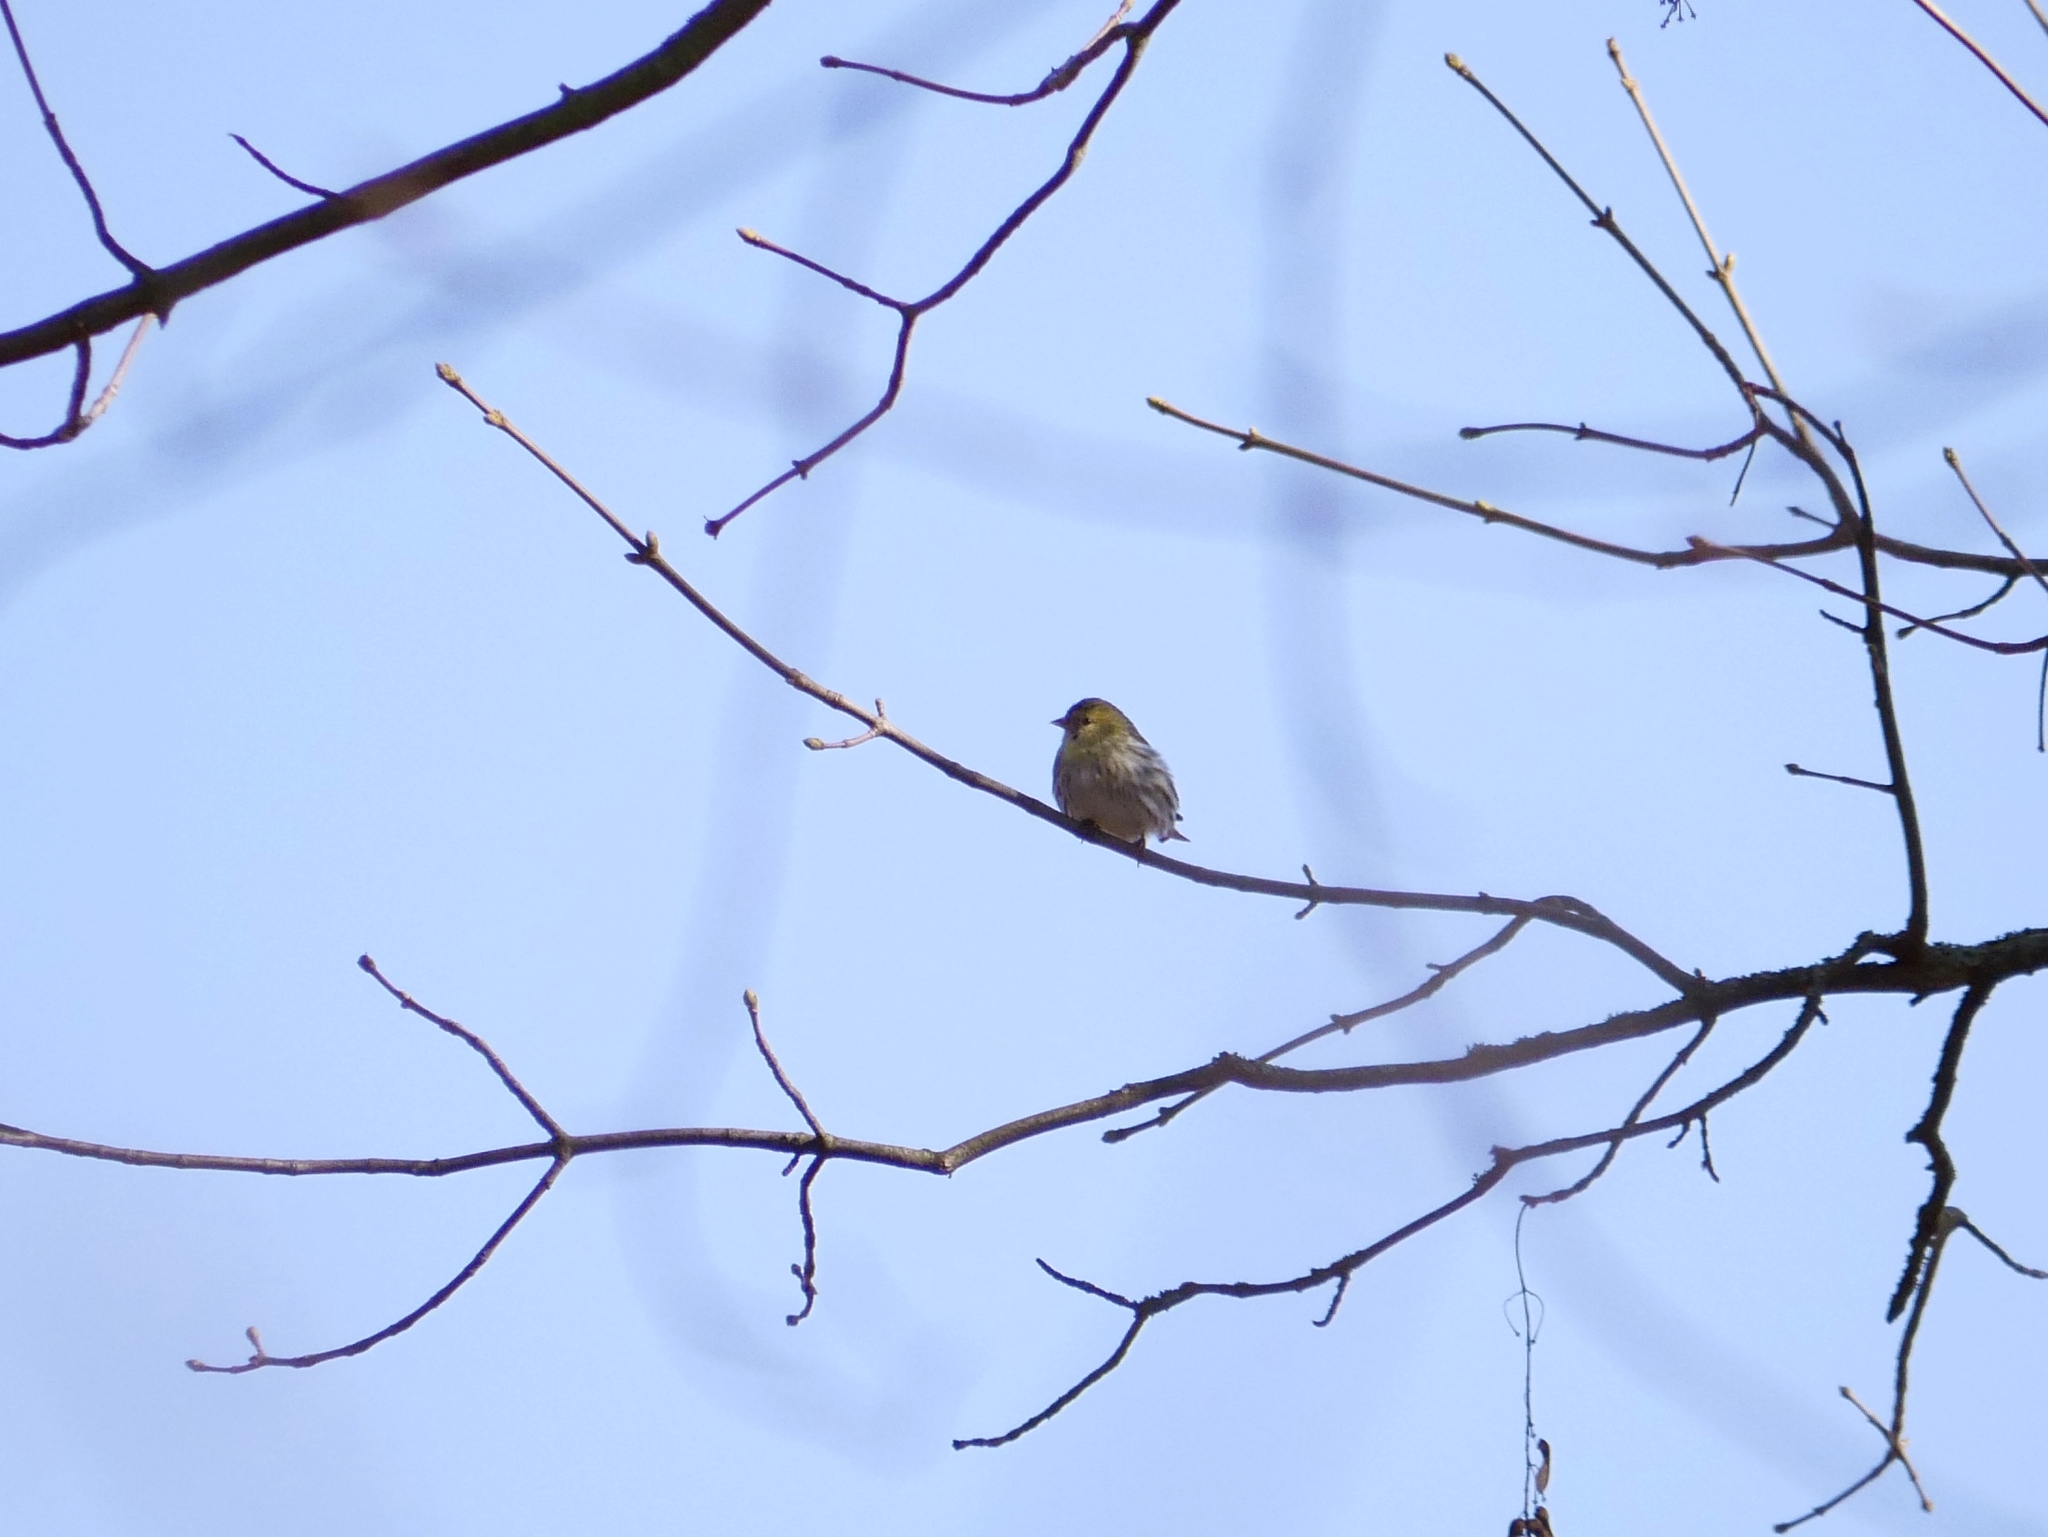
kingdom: Animalia
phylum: Chordata
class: Aves
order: Passeriformes
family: Fringillidae
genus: Spinus
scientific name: Spinus spinus
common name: Eurasian siskin
